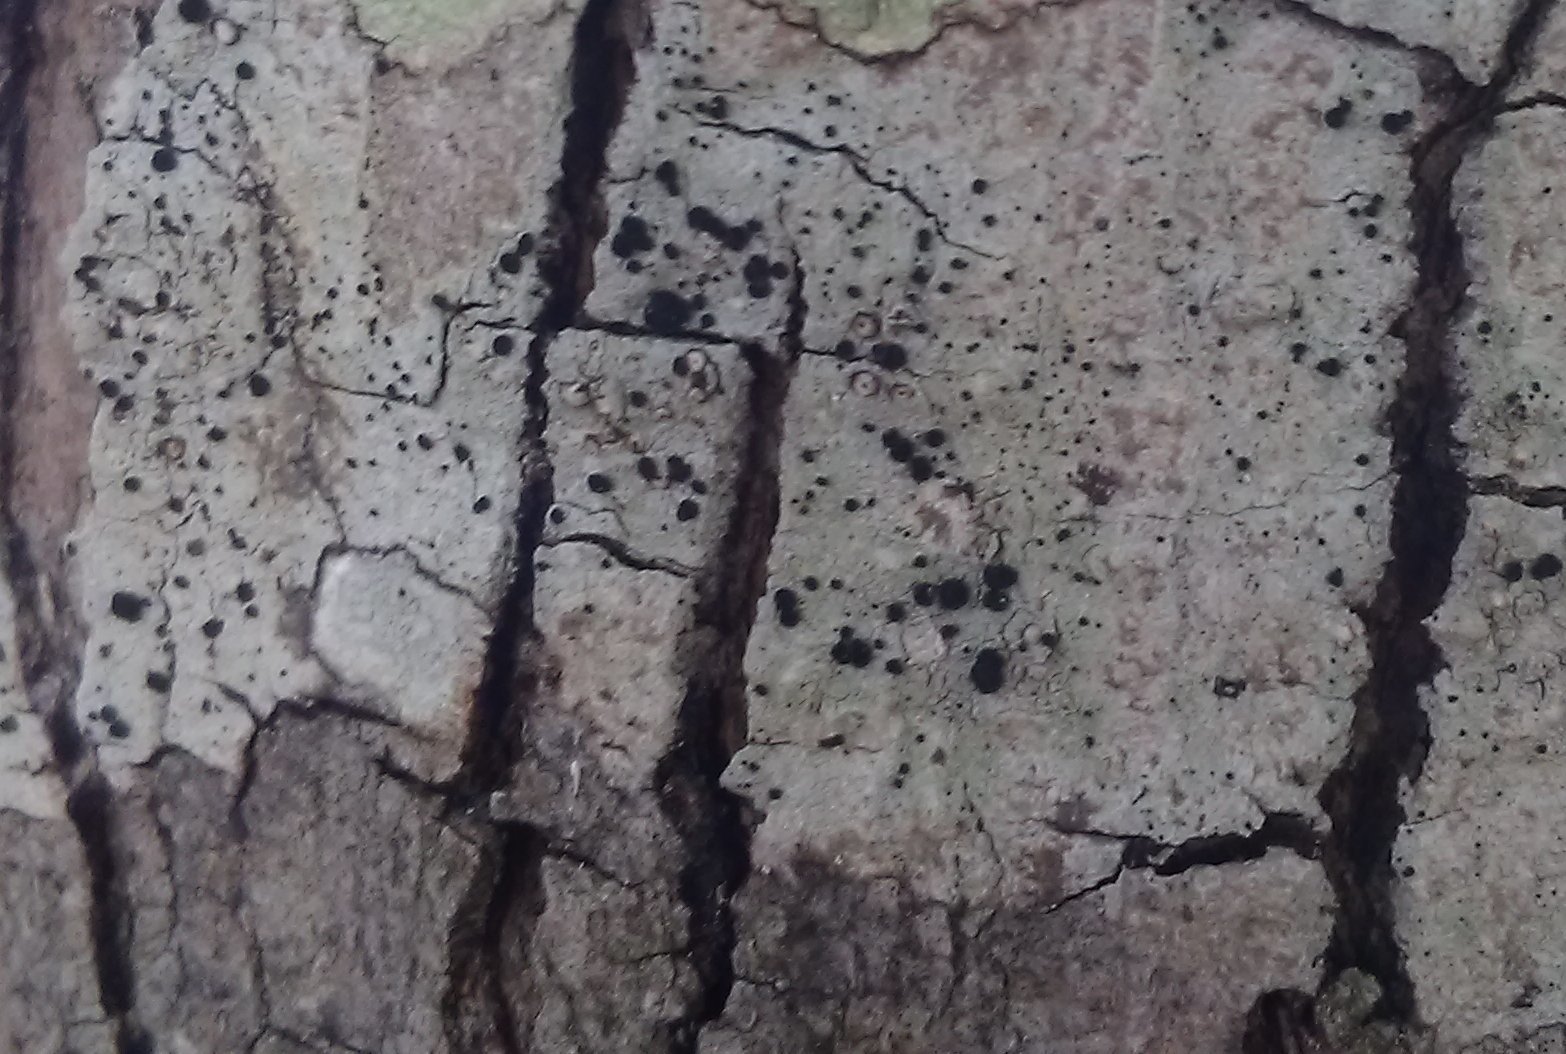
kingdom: Fungi
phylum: Ascomycota
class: Lecanoromycetes
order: Caliciales
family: Caliciaceae
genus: Buellia
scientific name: Buellia erubescens
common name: Common button lichen
